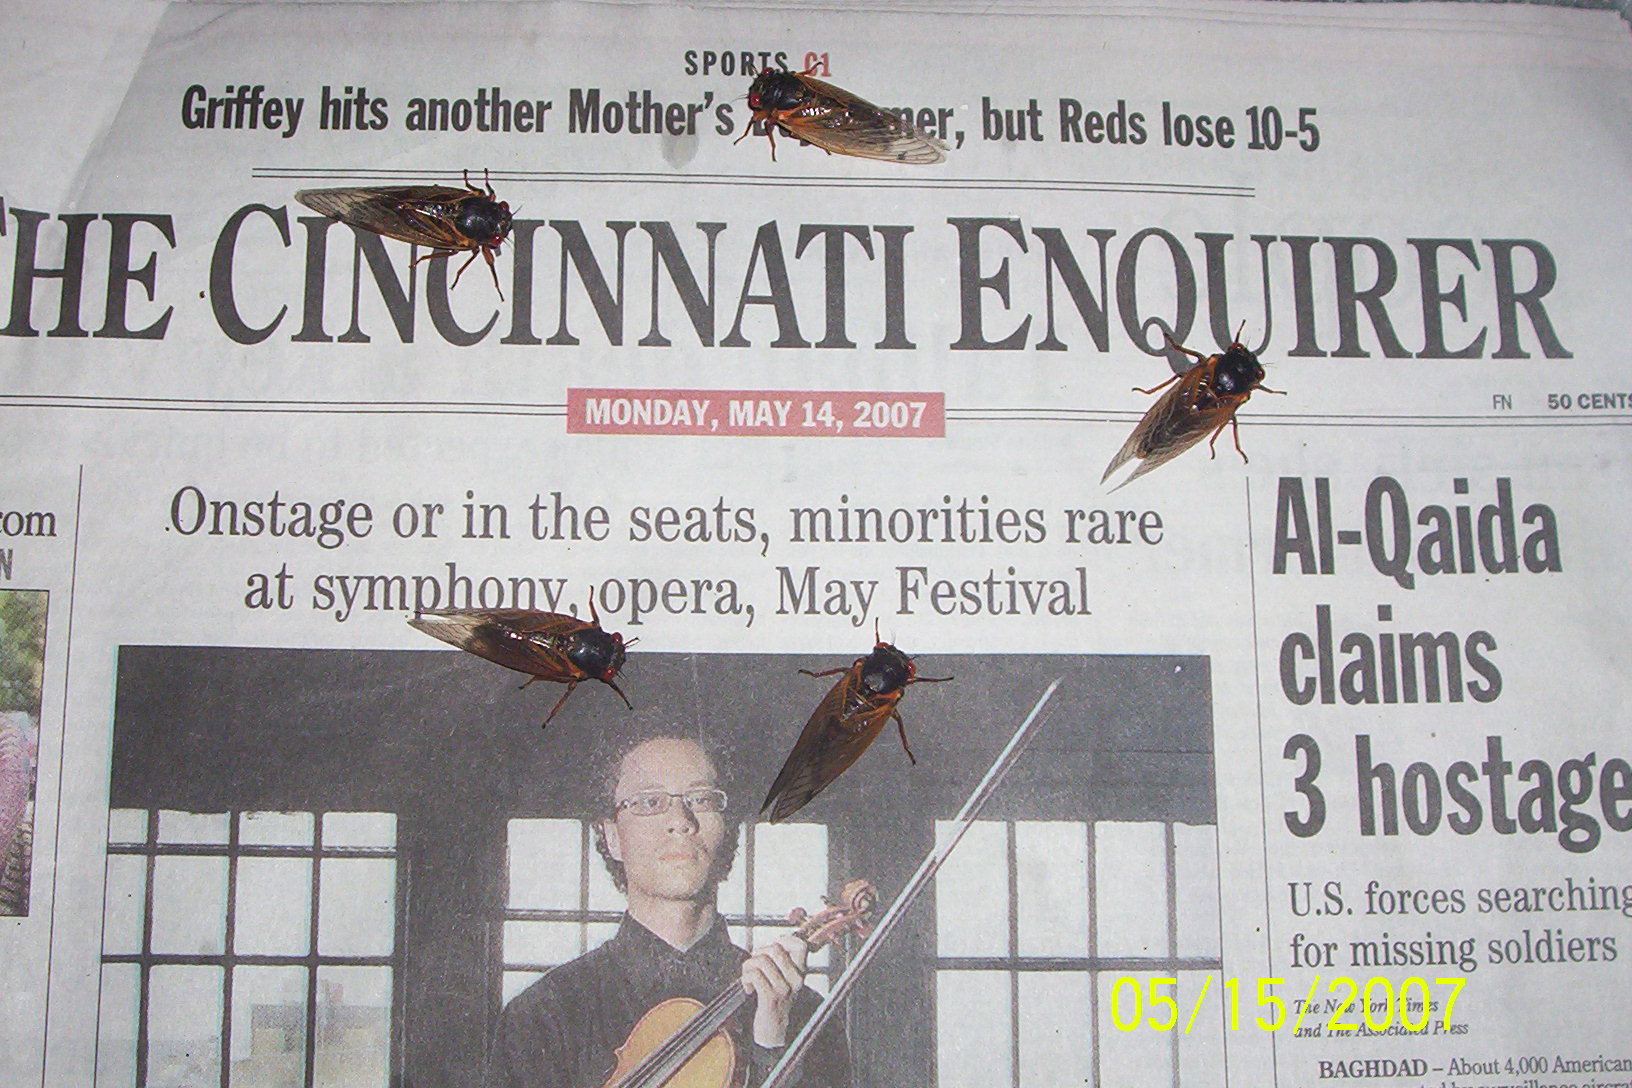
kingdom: Animalia
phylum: Arthropoda
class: Insecta
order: Hemiptera
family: Cicadidae
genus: Magicicada
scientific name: Magicicada
